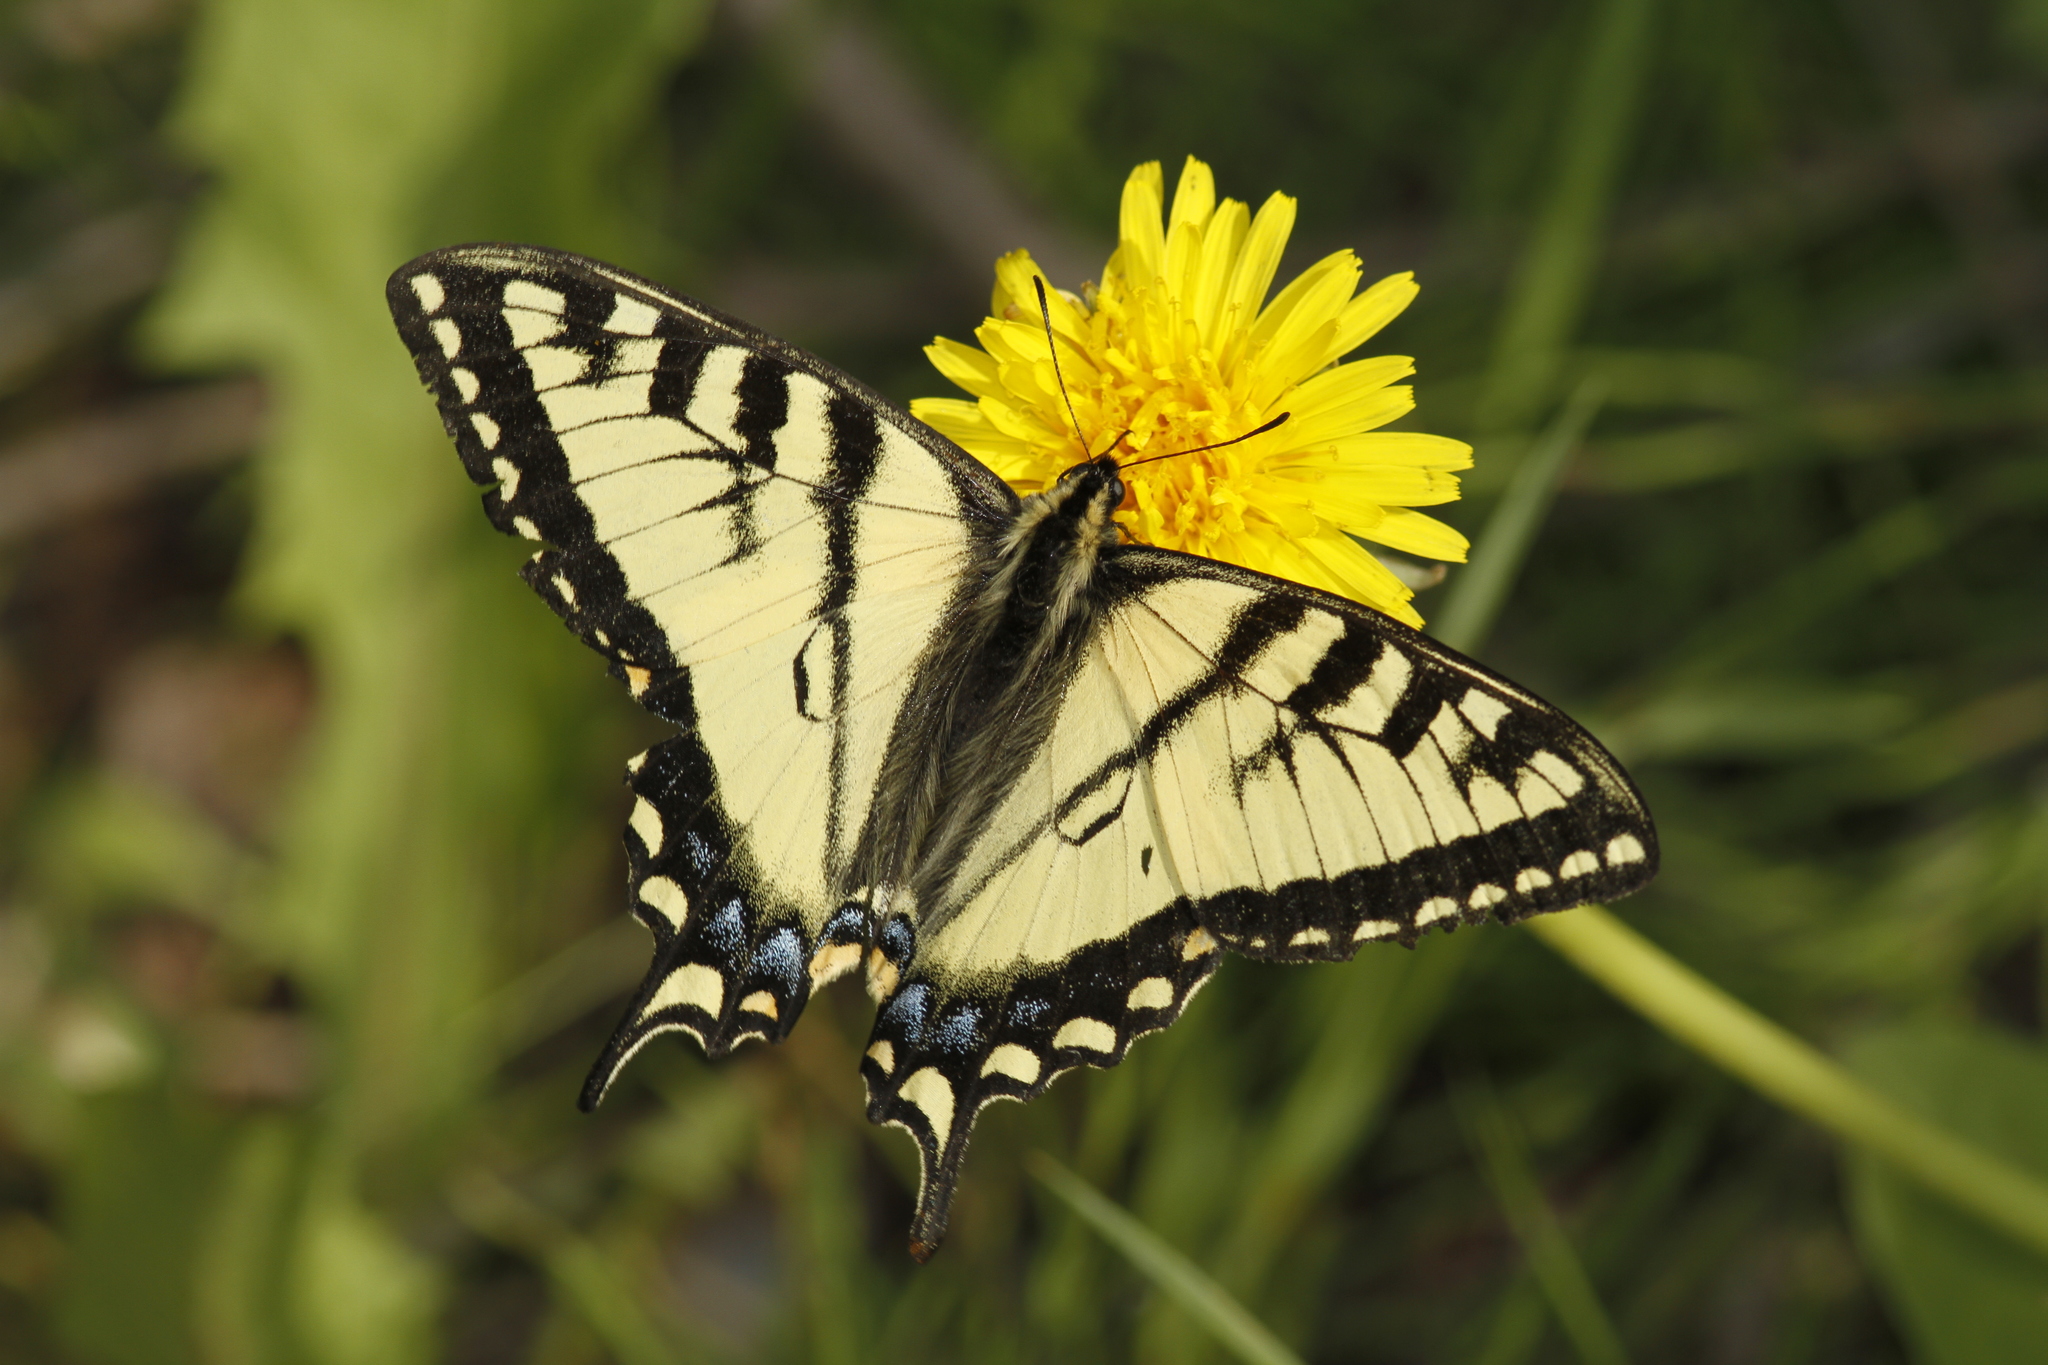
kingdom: Animalia
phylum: Arthropoda
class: Insecta
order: Lepidoptera
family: Papilionidae
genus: Papilio
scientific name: Papilio canadensis
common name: Canadian tiger swallowtail
